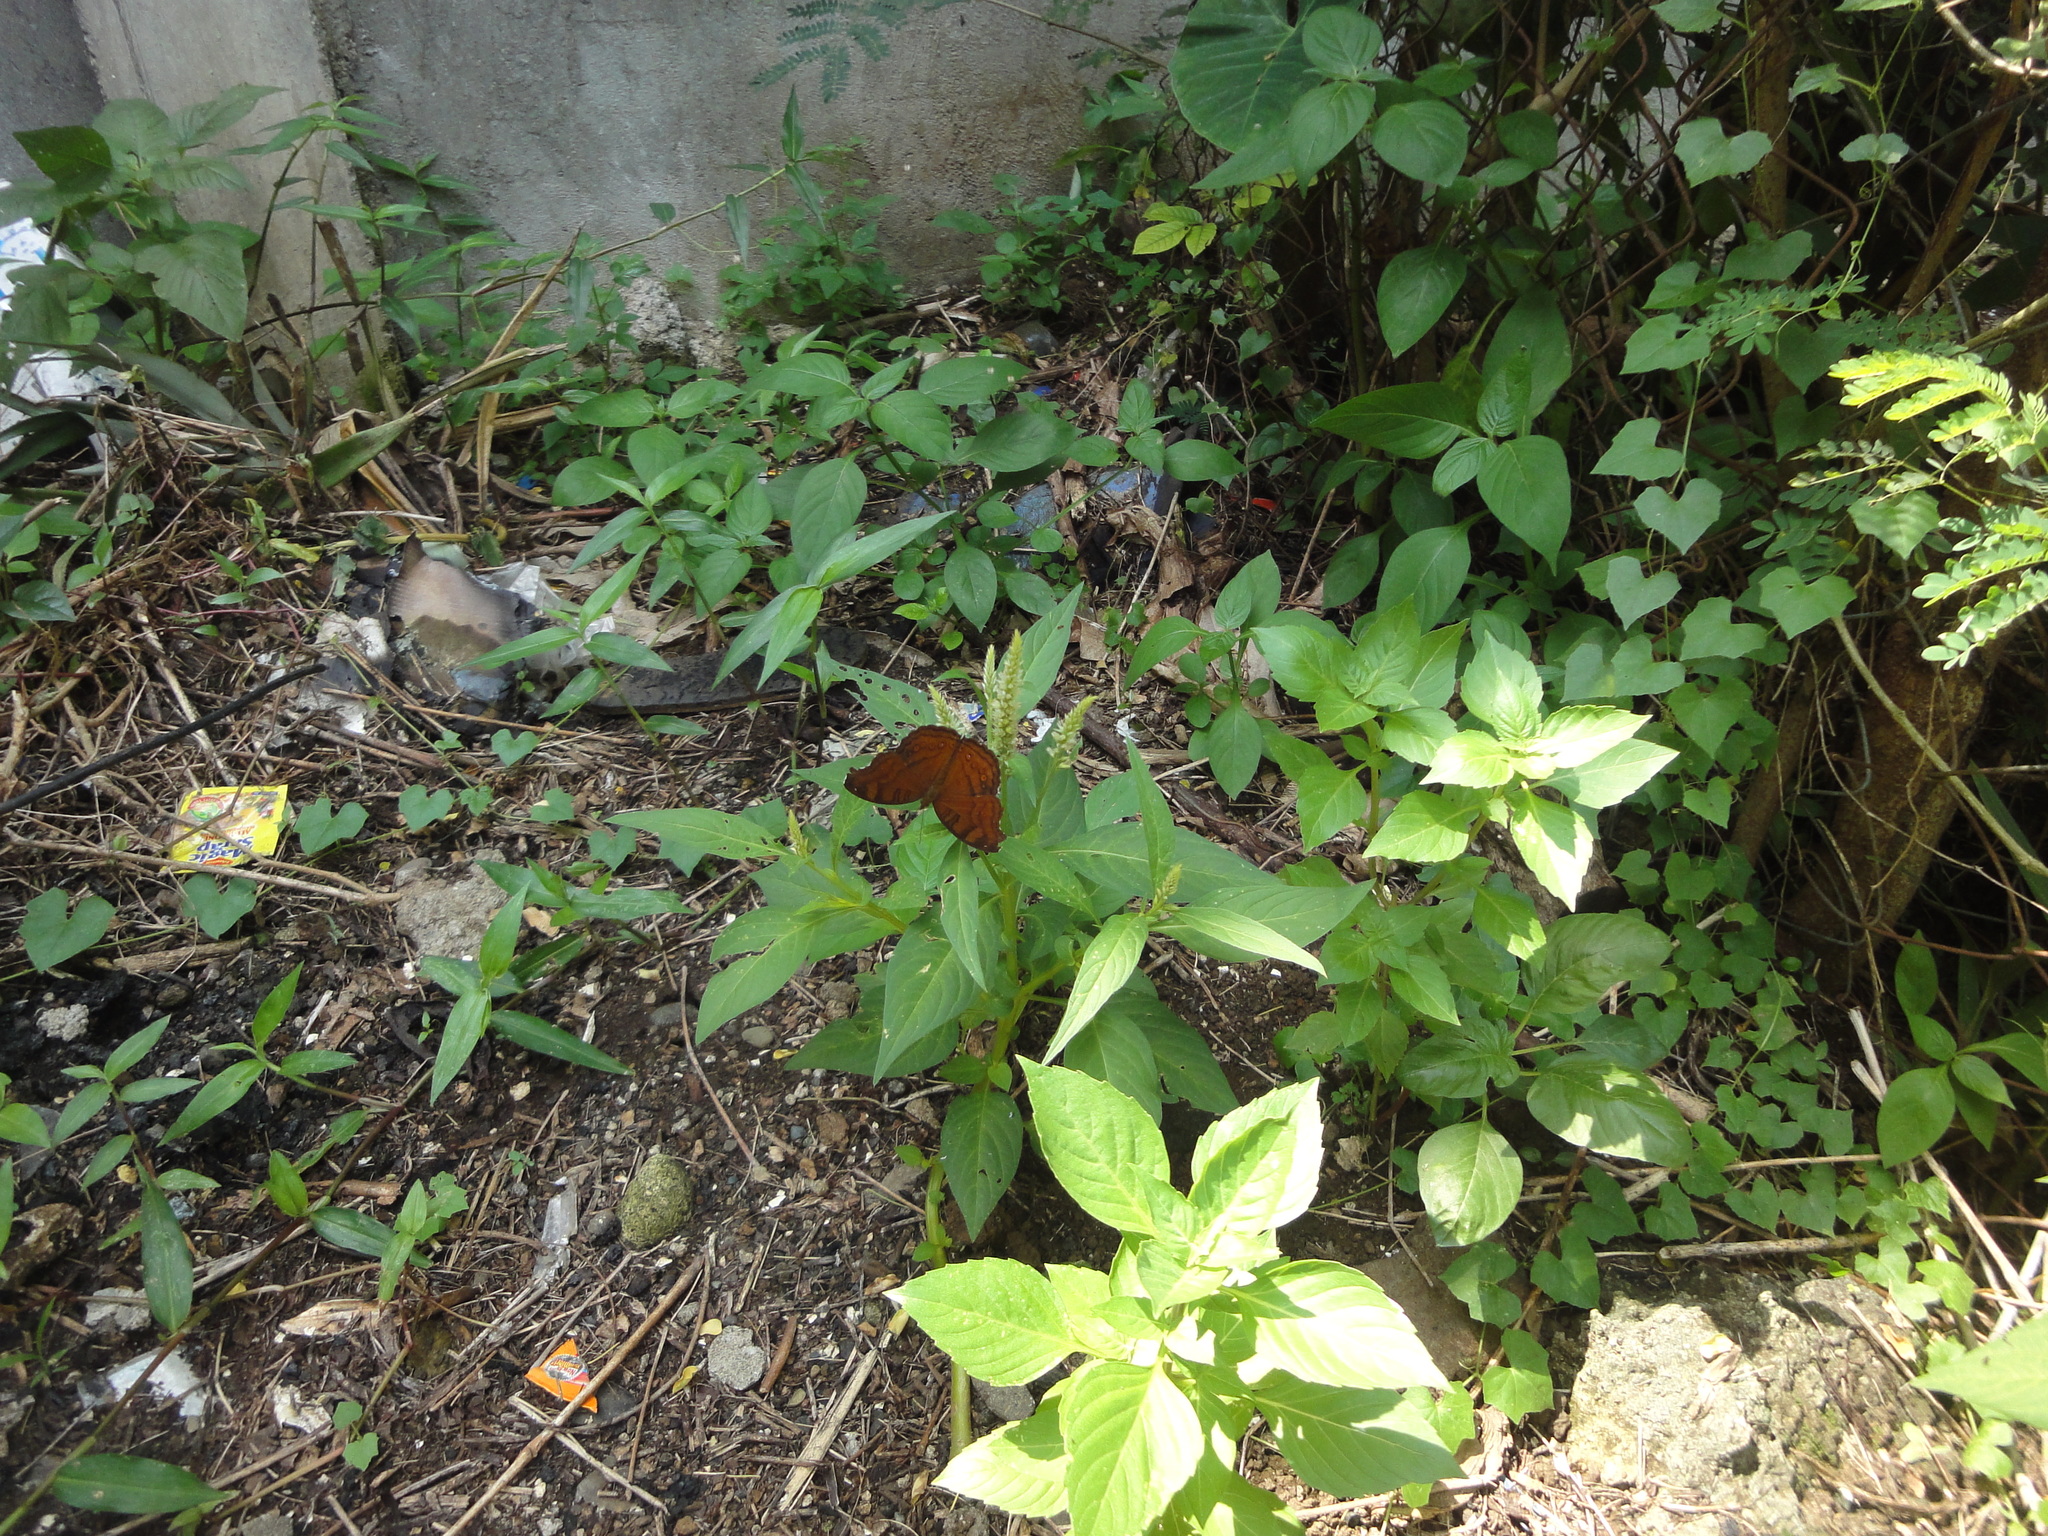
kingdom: Animalia
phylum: Arthropoda
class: Insecta
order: Lepidoptera
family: Nymphalidae
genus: Junonia
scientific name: Junonia hedonia
